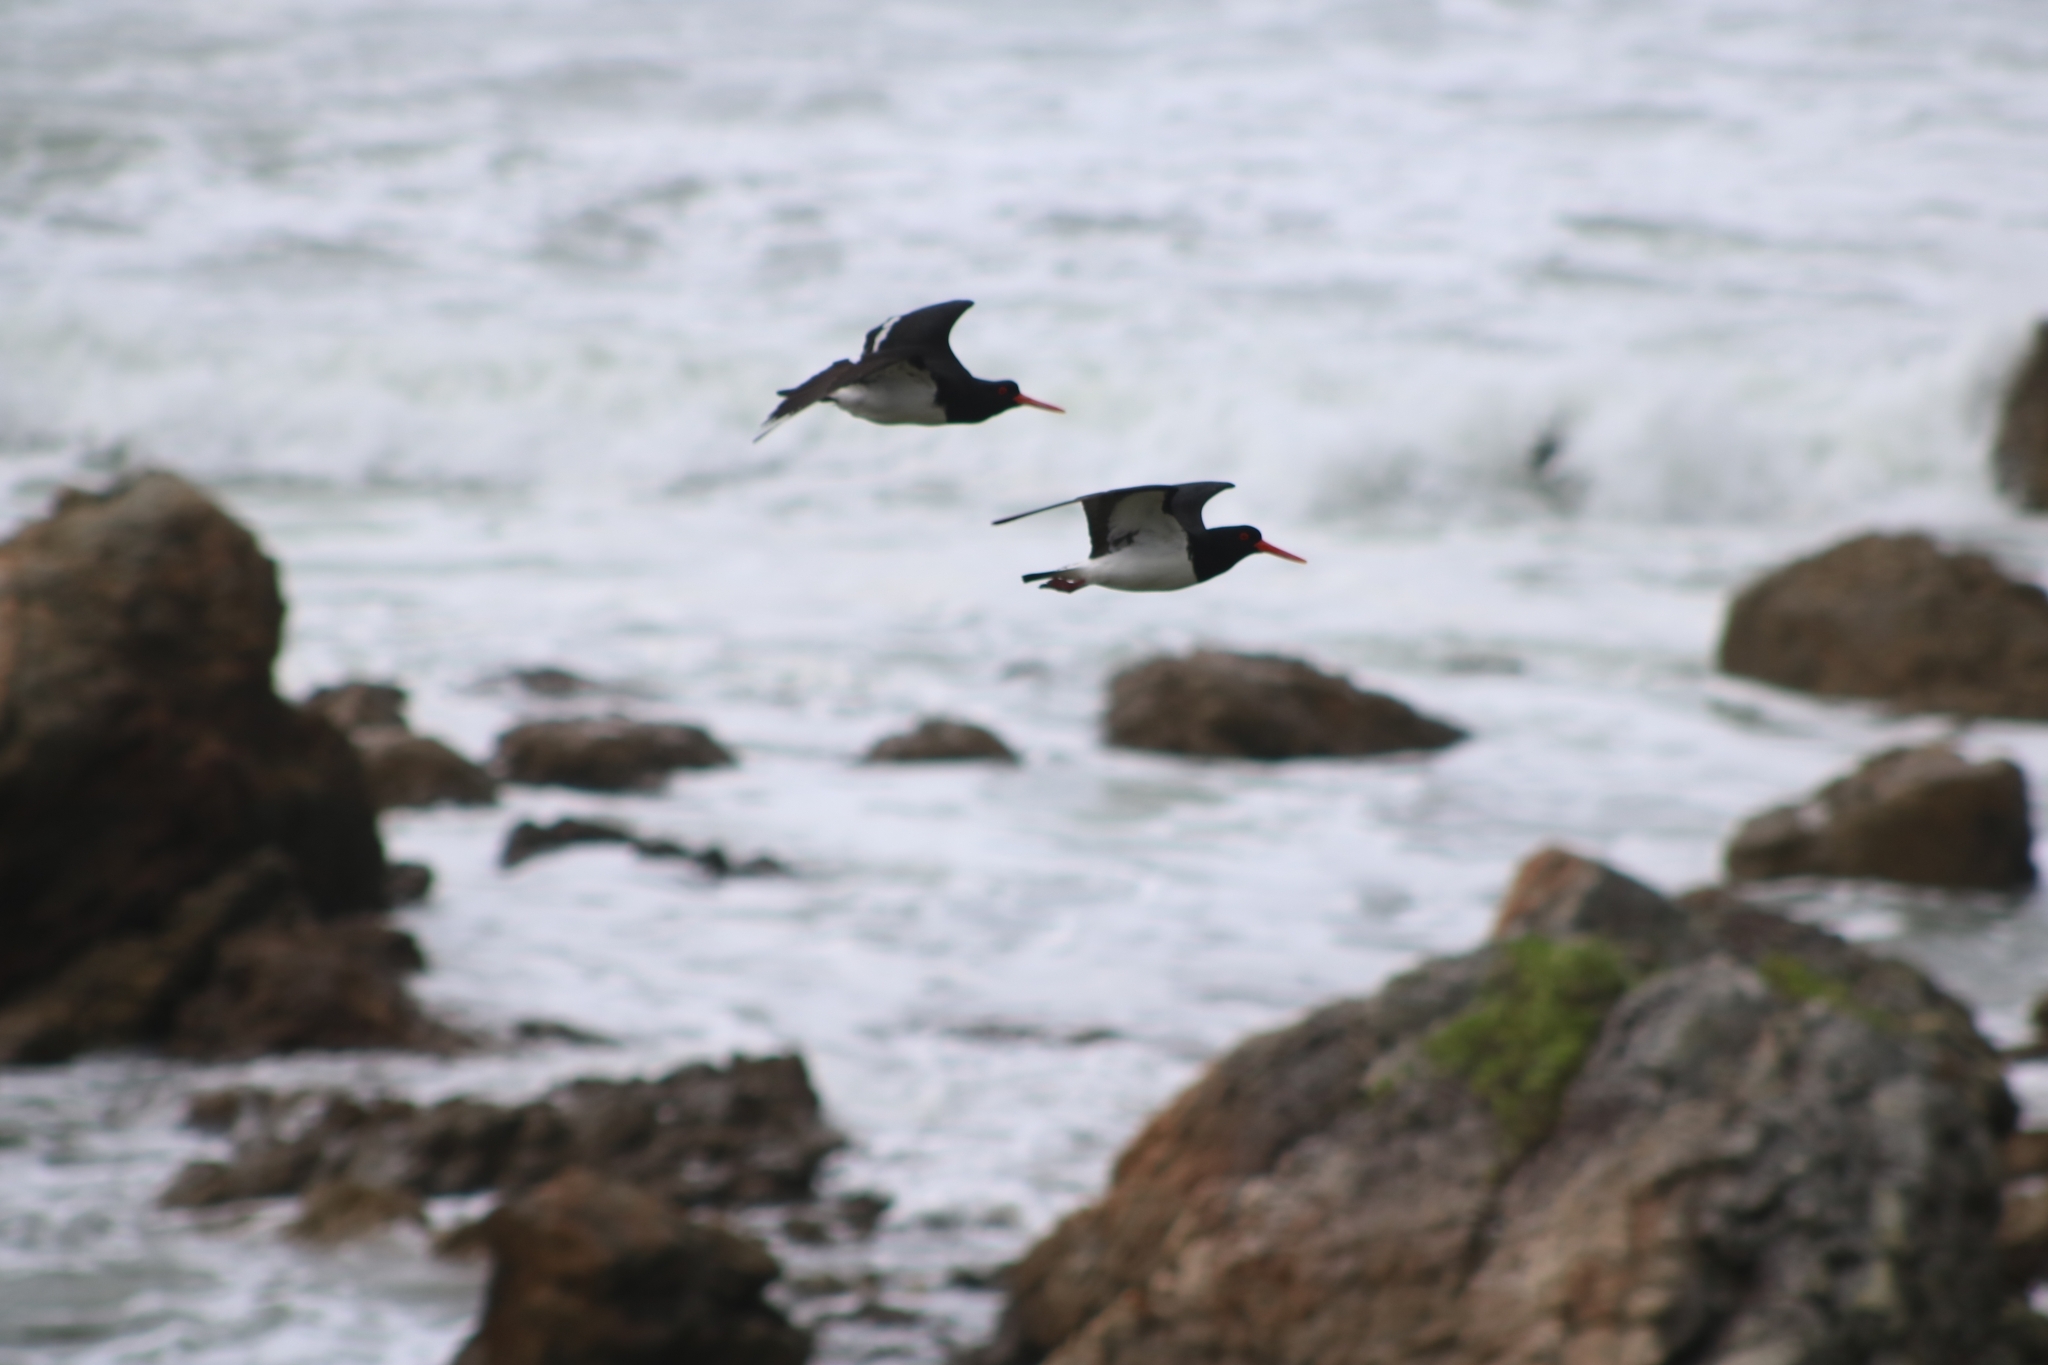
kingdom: Animalia
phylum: Chordata
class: Aves
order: Charadriiformes
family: Haematopodidae
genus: Haematopus
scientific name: Haematopus longirostris
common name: Pied oystercatcher
